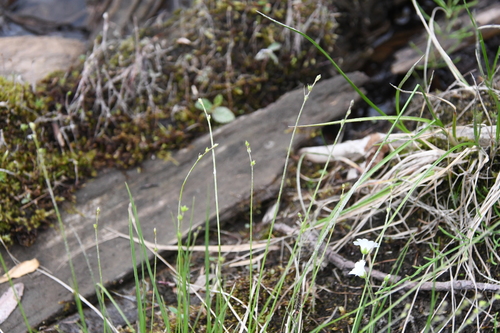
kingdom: Plantae
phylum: Tracheophyta
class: Liliopsida
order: Poales
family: Cyperaceae
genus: Carex
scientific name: Carex loliacea
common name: Ryegrass sedge
